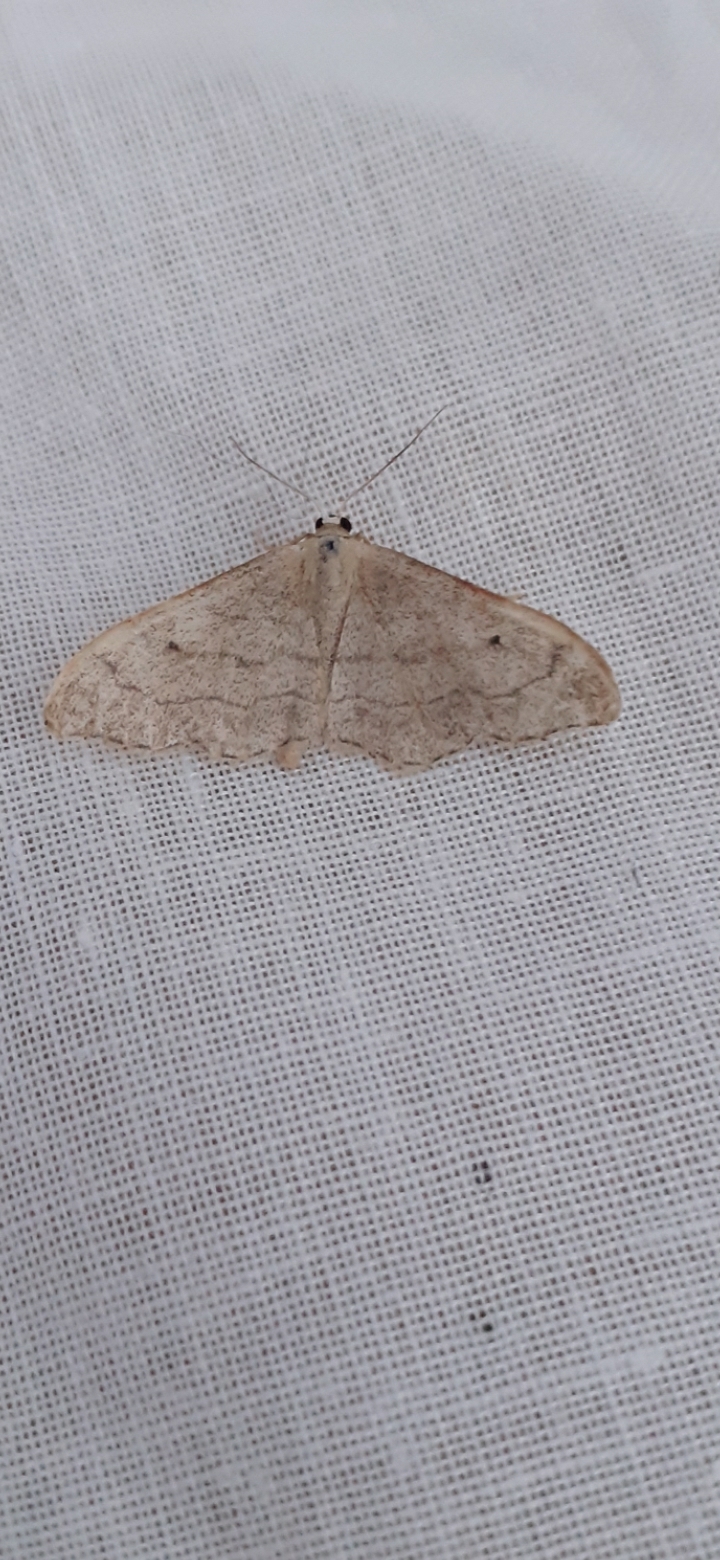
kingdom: Animalia
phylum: Arthropoda
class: Insecta
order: Lepidoptera
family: Geometridae
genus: Idaea
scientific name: Idaea aversata
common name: Riband wave
